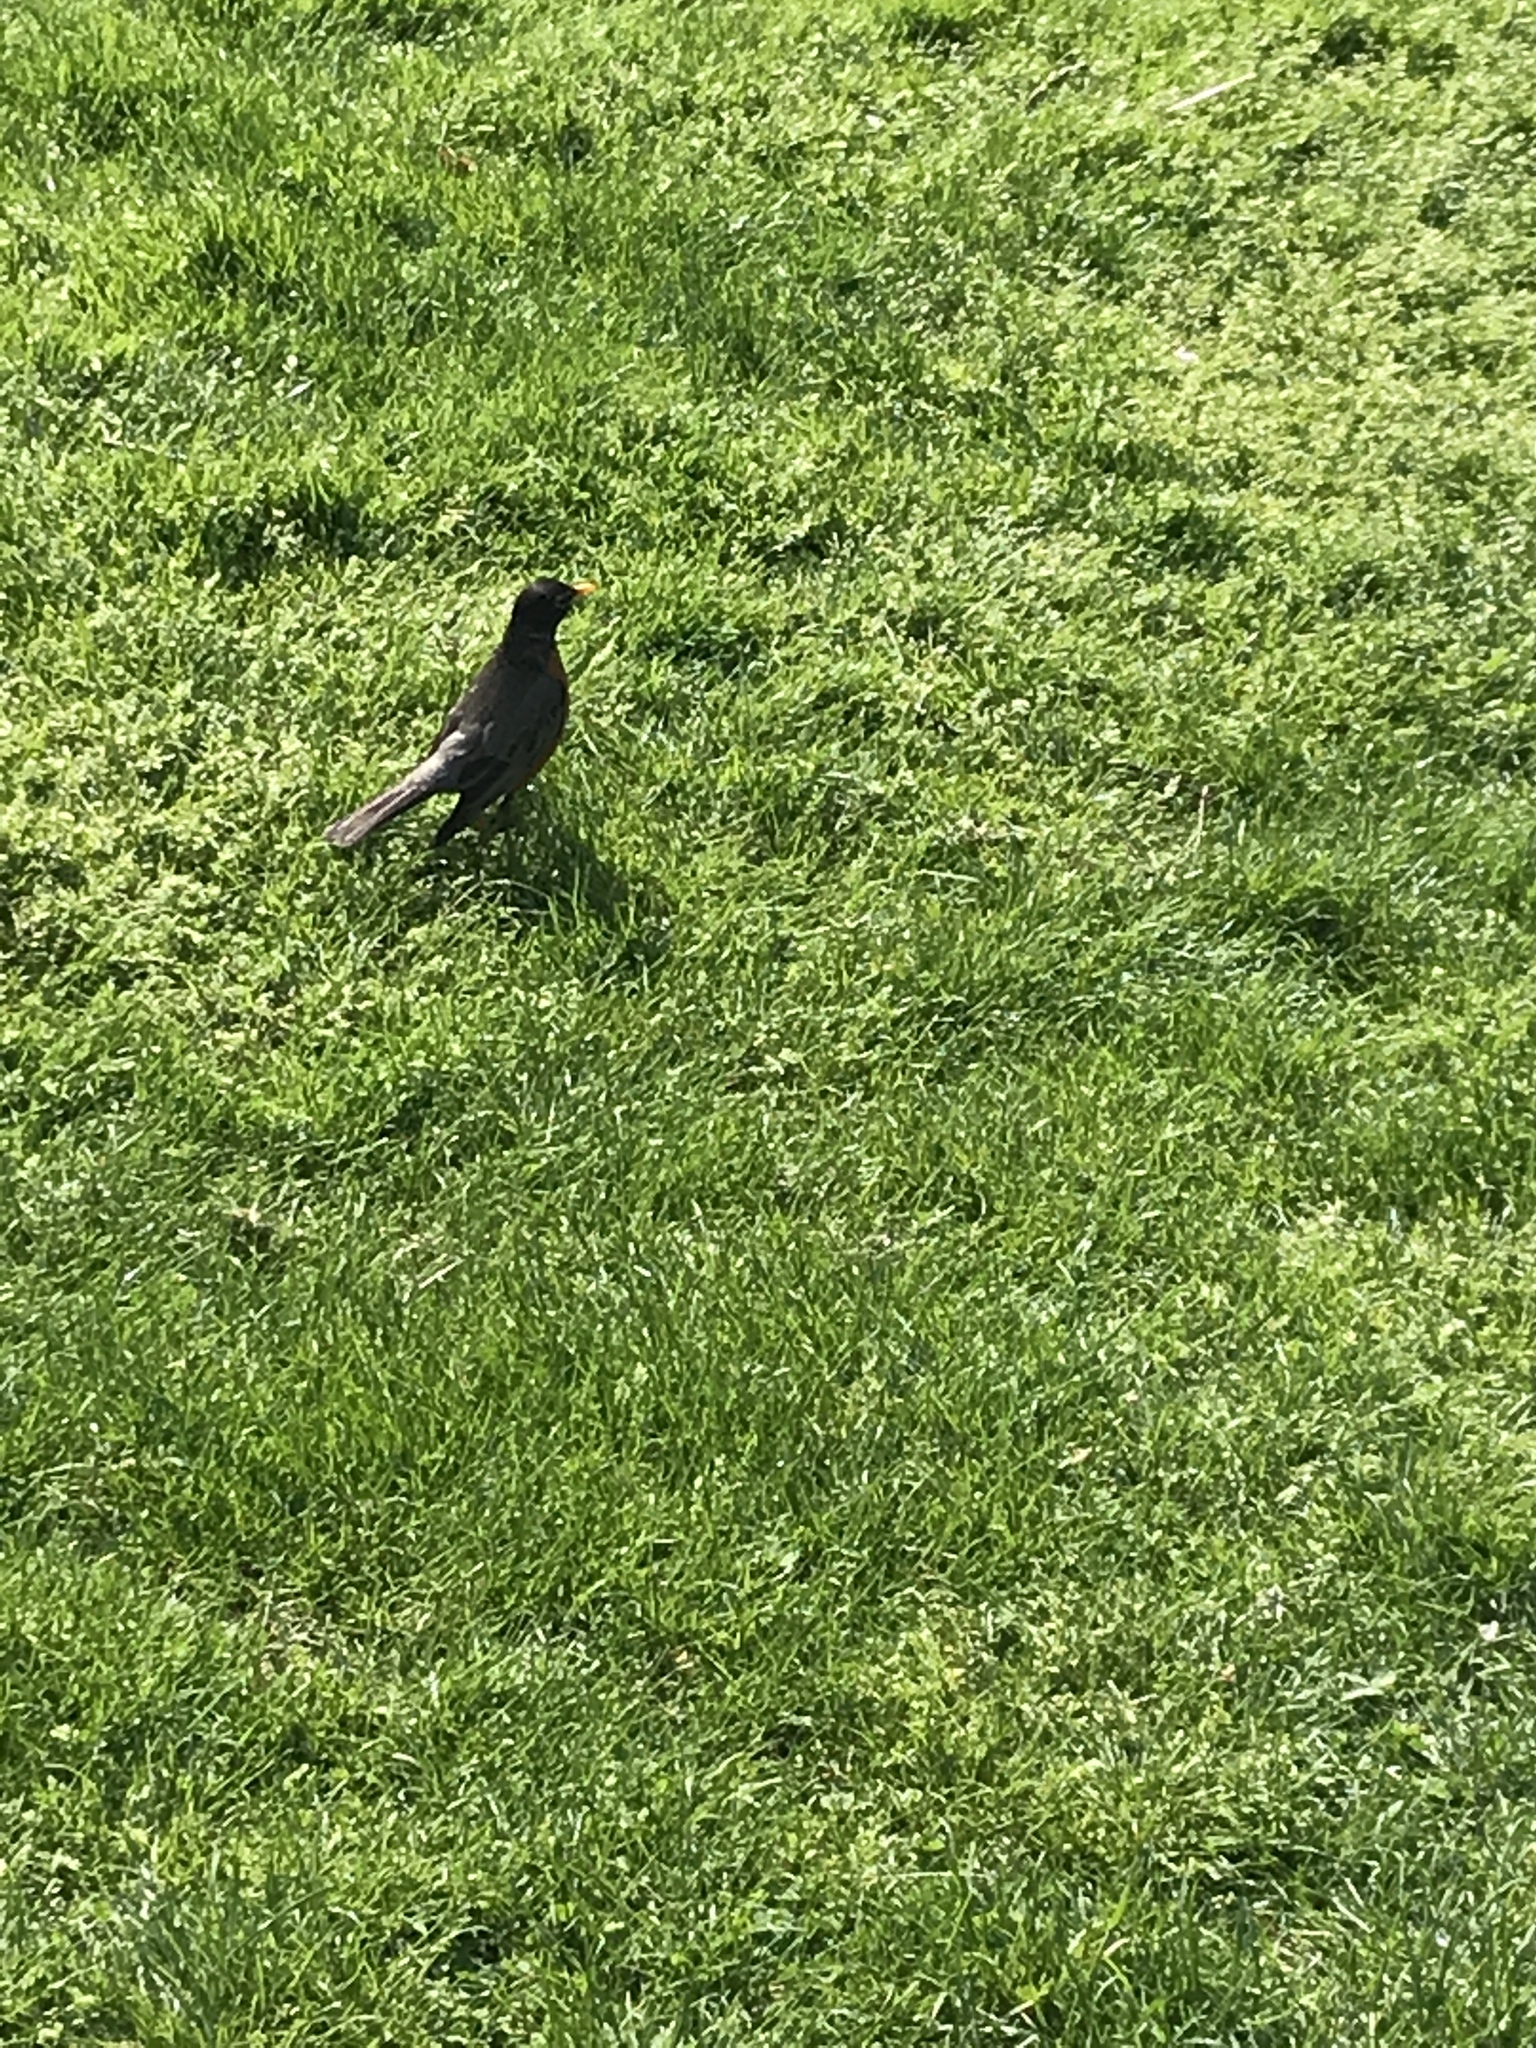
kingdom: Animalia
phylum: Chordata
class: Aves
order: Passeriformes
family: Turdidae
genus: Turdus
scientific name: Turdus migratorius
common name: American robin
